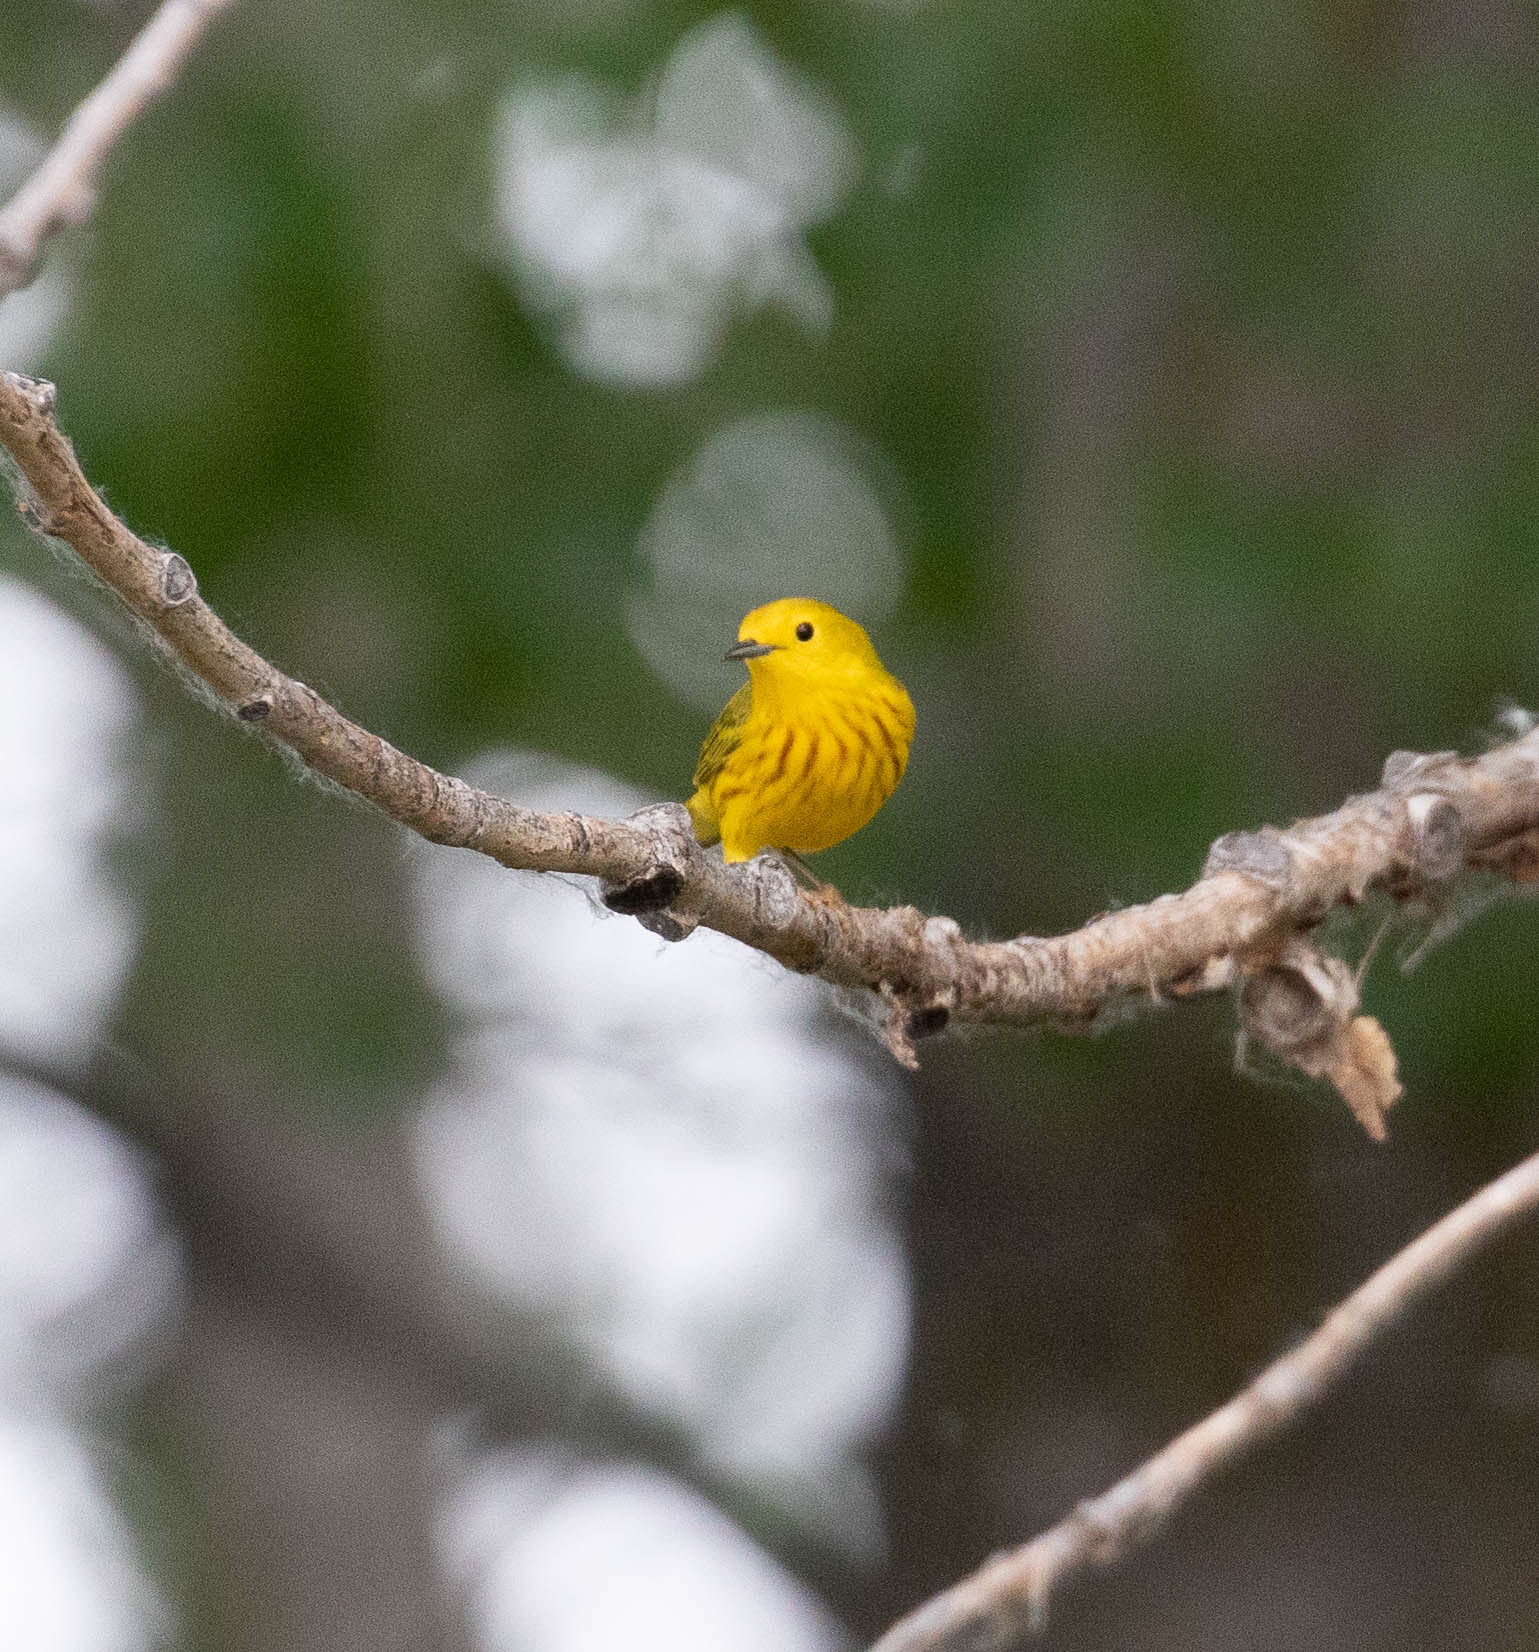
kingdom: Animalia
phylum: Chordata
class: Aves
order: Passeriformes
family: Parulidae
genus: Setophaga
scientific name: Setophaga petechia
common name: Yellow warbler
